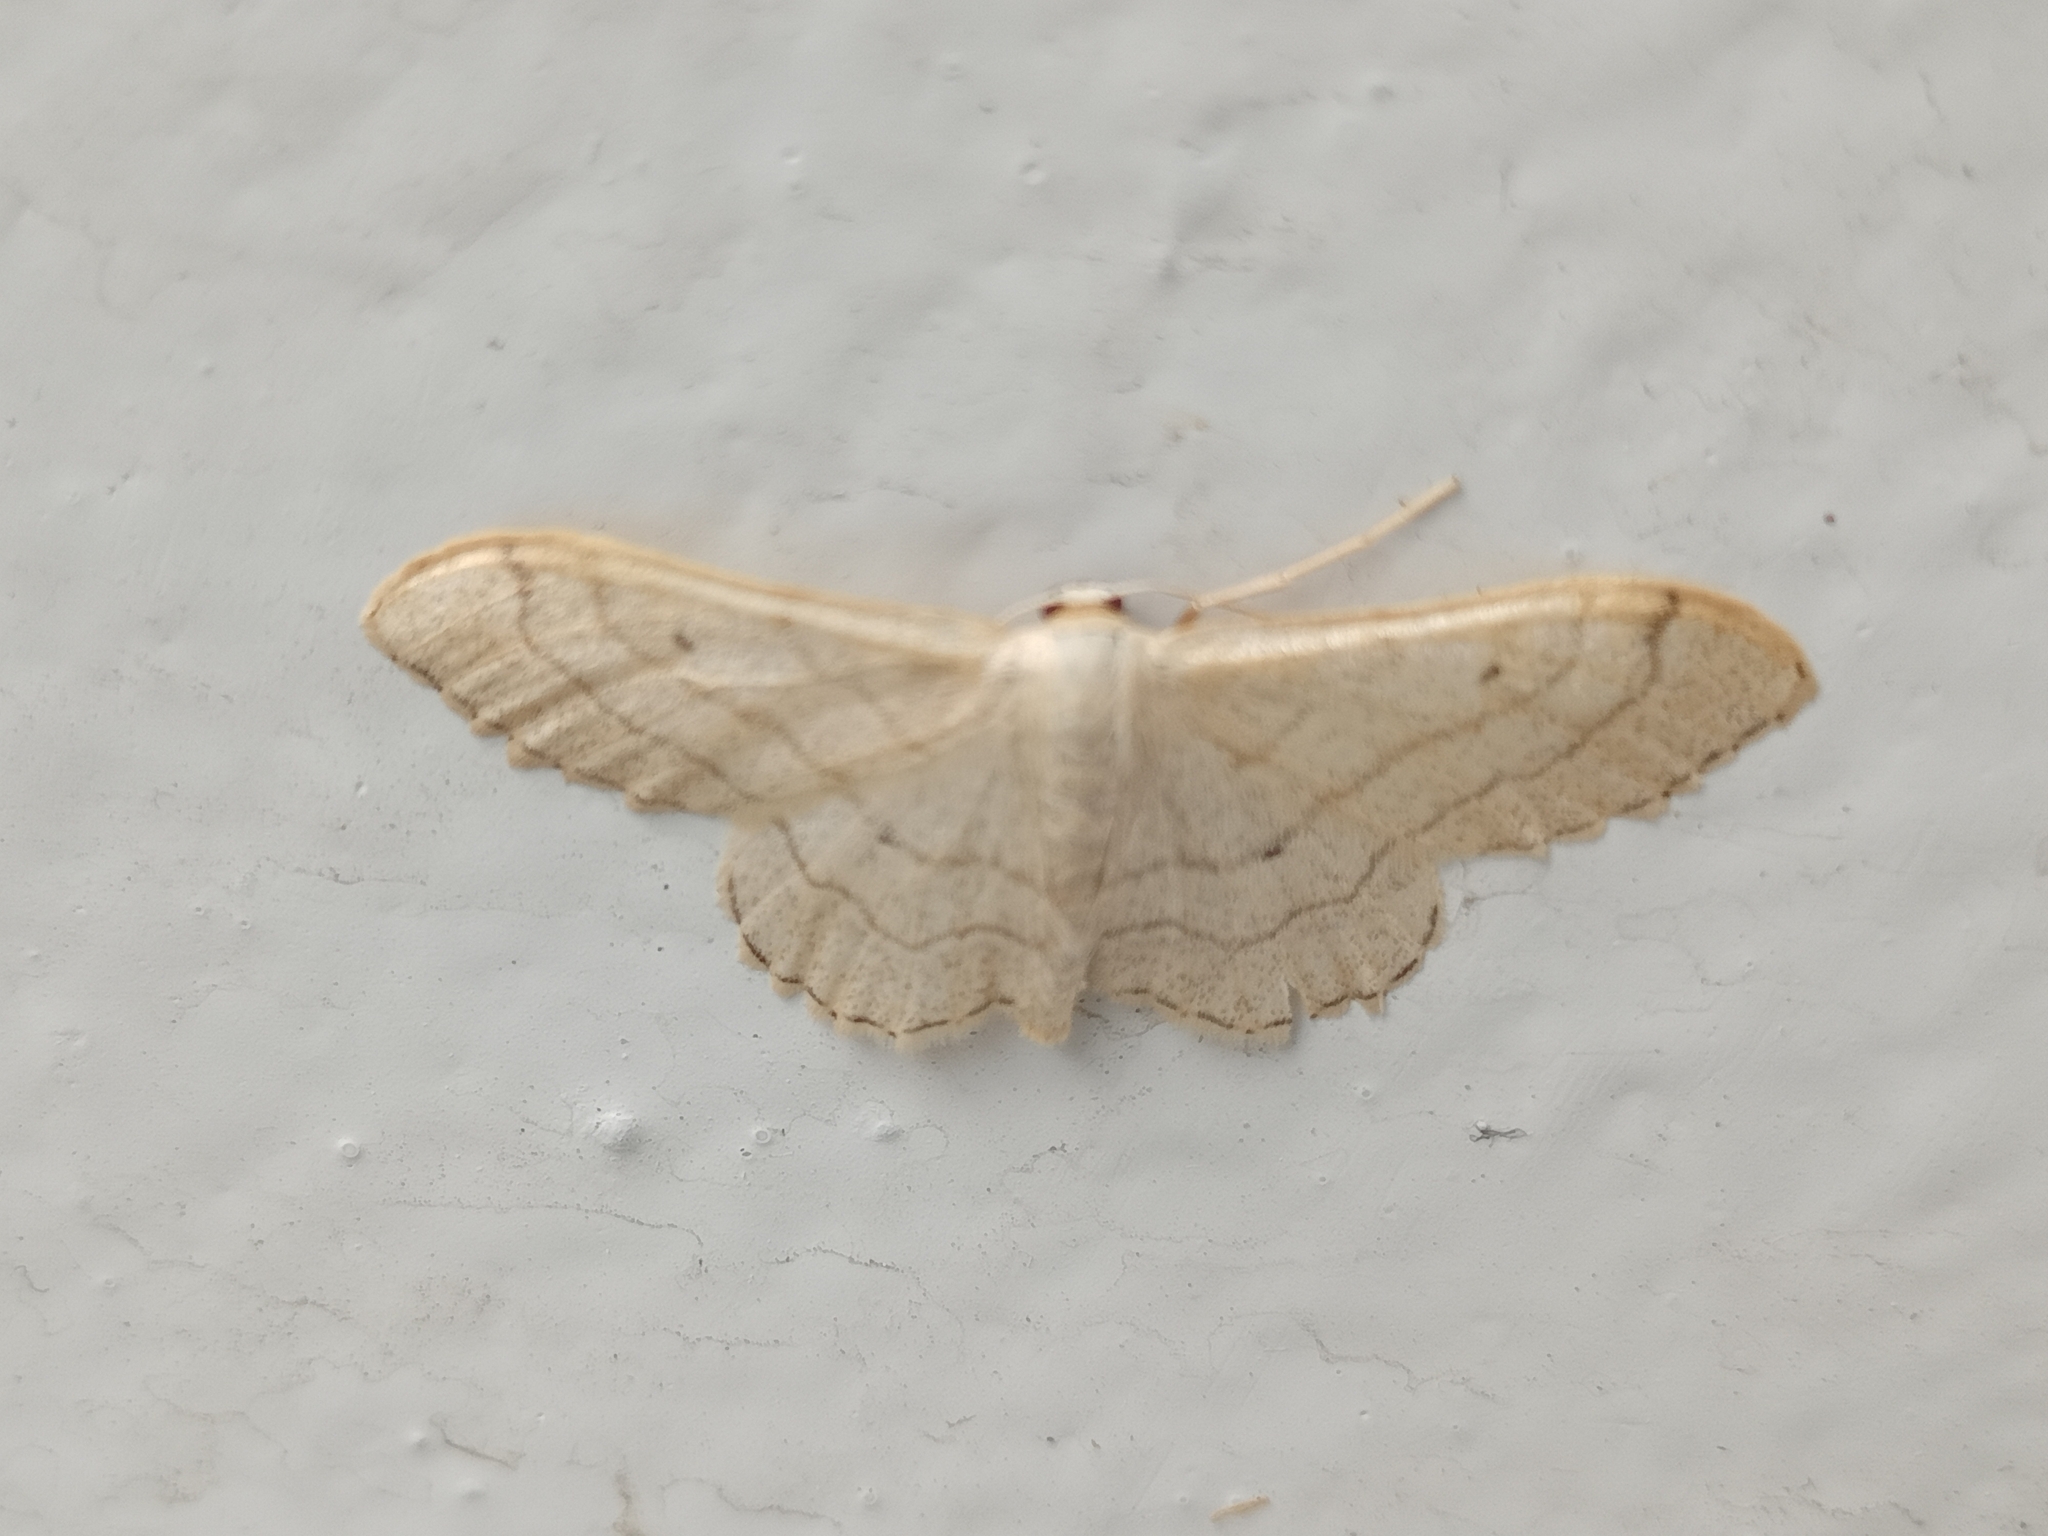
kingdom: Animalia
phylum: Arthropoda
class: Insecta
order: Lepidoptera
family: Geometridae
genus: Idaea
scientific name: Idaea aversata
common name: Riband wave
